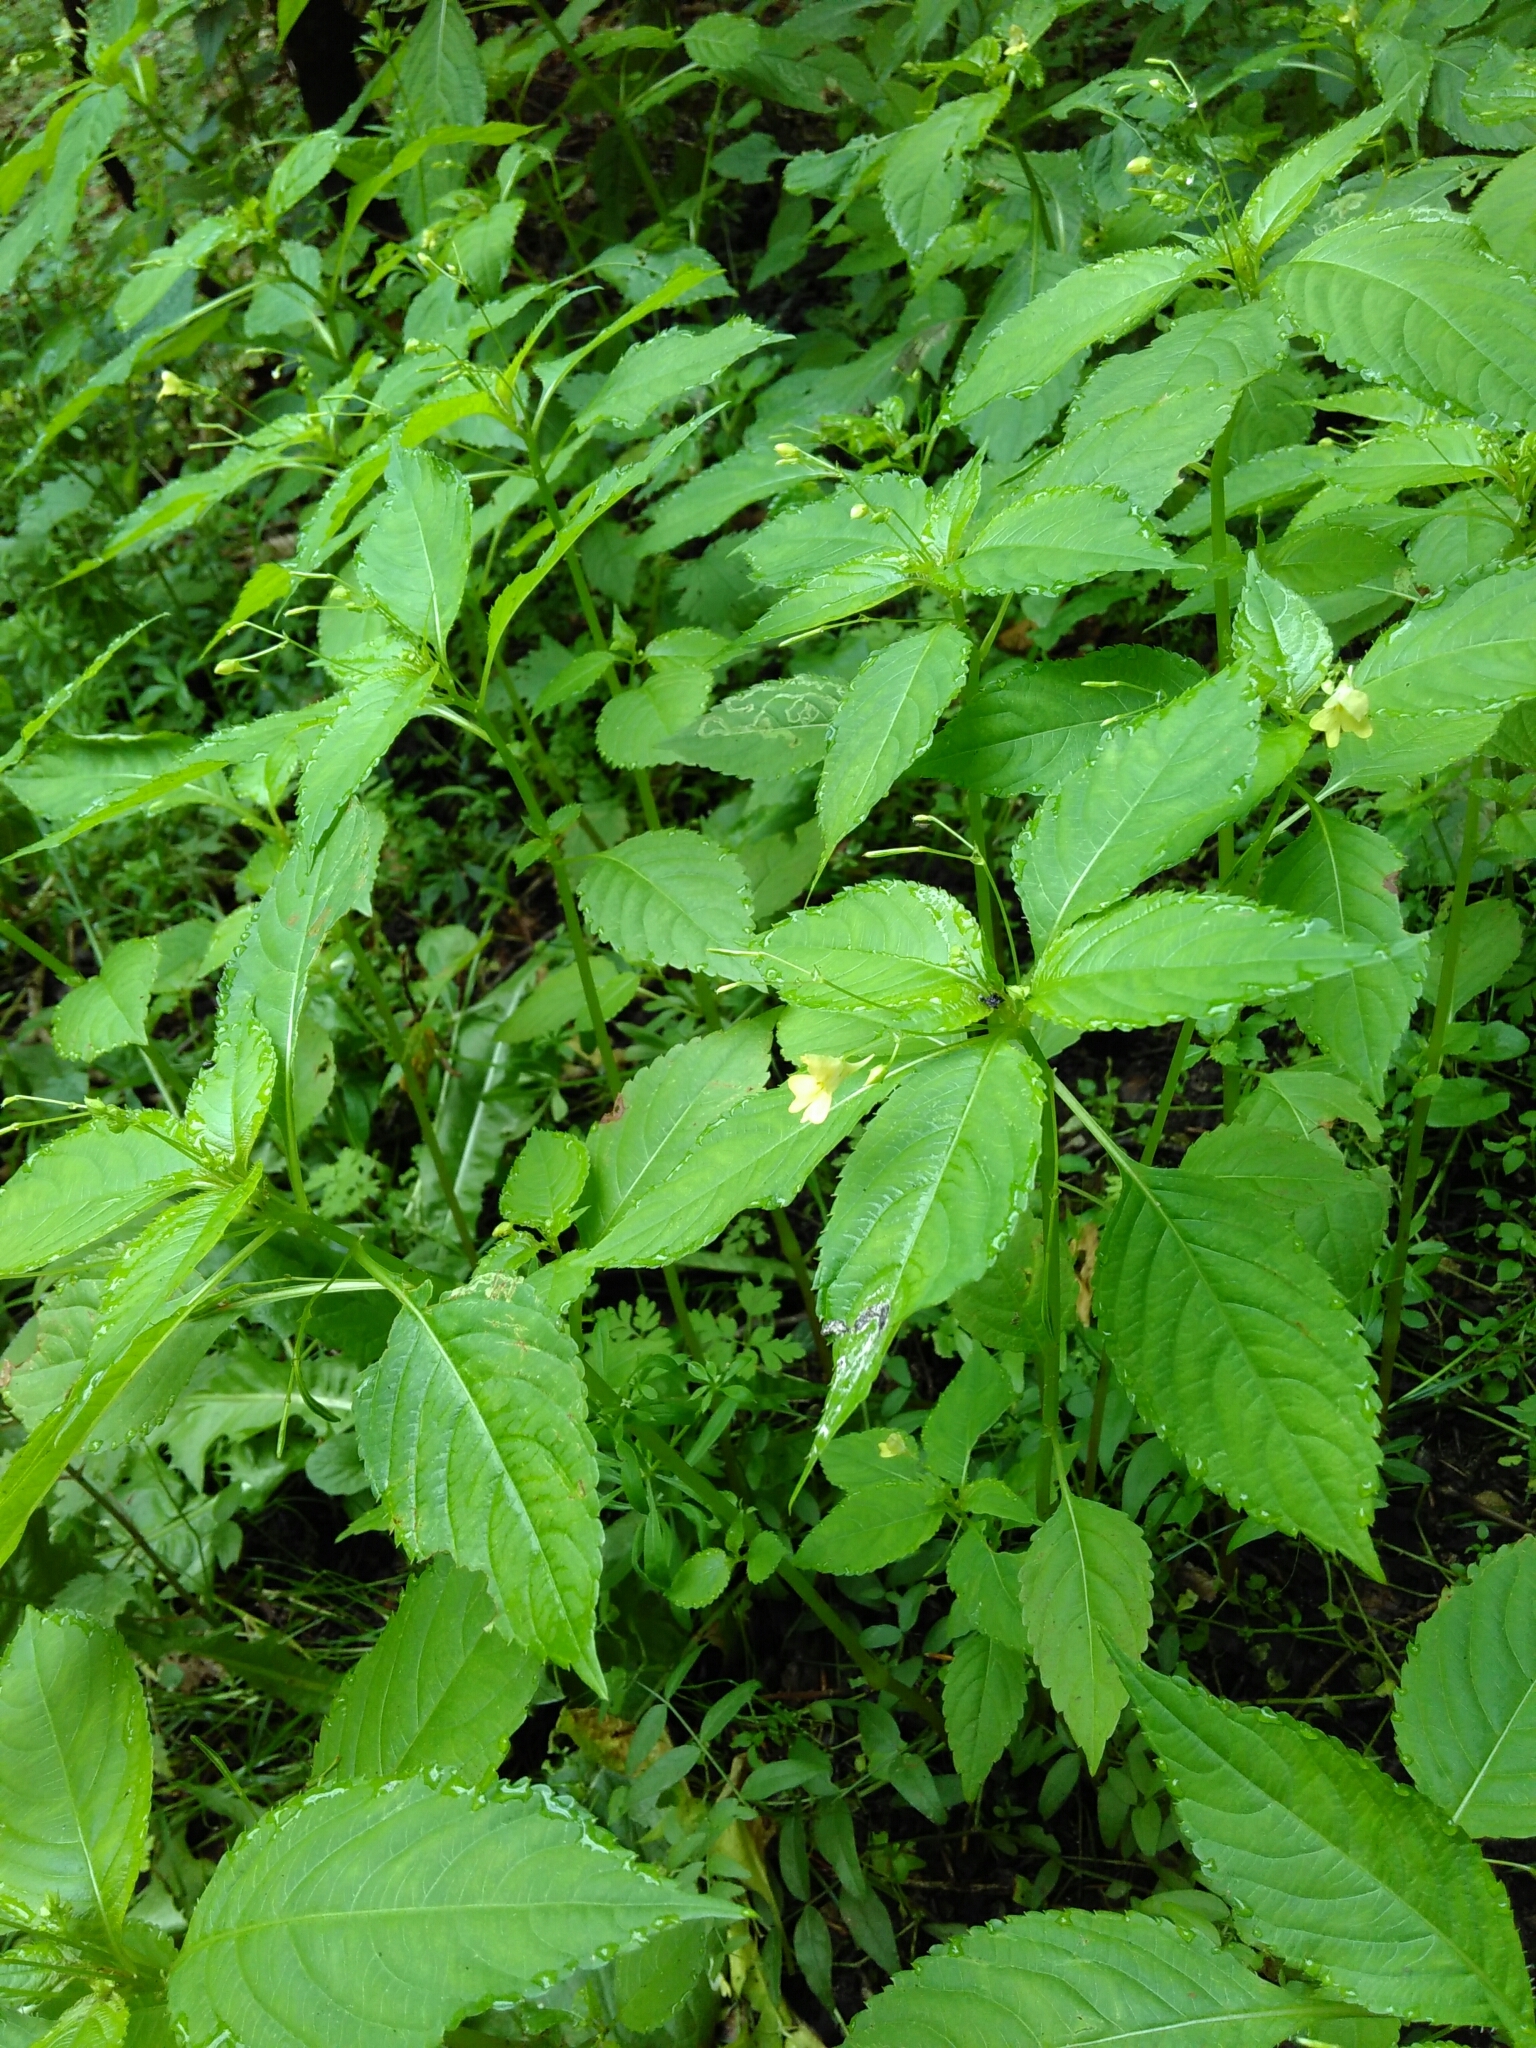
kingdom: Plantae
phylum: Tracheophyta
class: Magnoliopsida
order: Ericales
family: Balsaminaceae
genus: Impatiens
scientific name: Impatiens parviflora
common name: Small balsam
